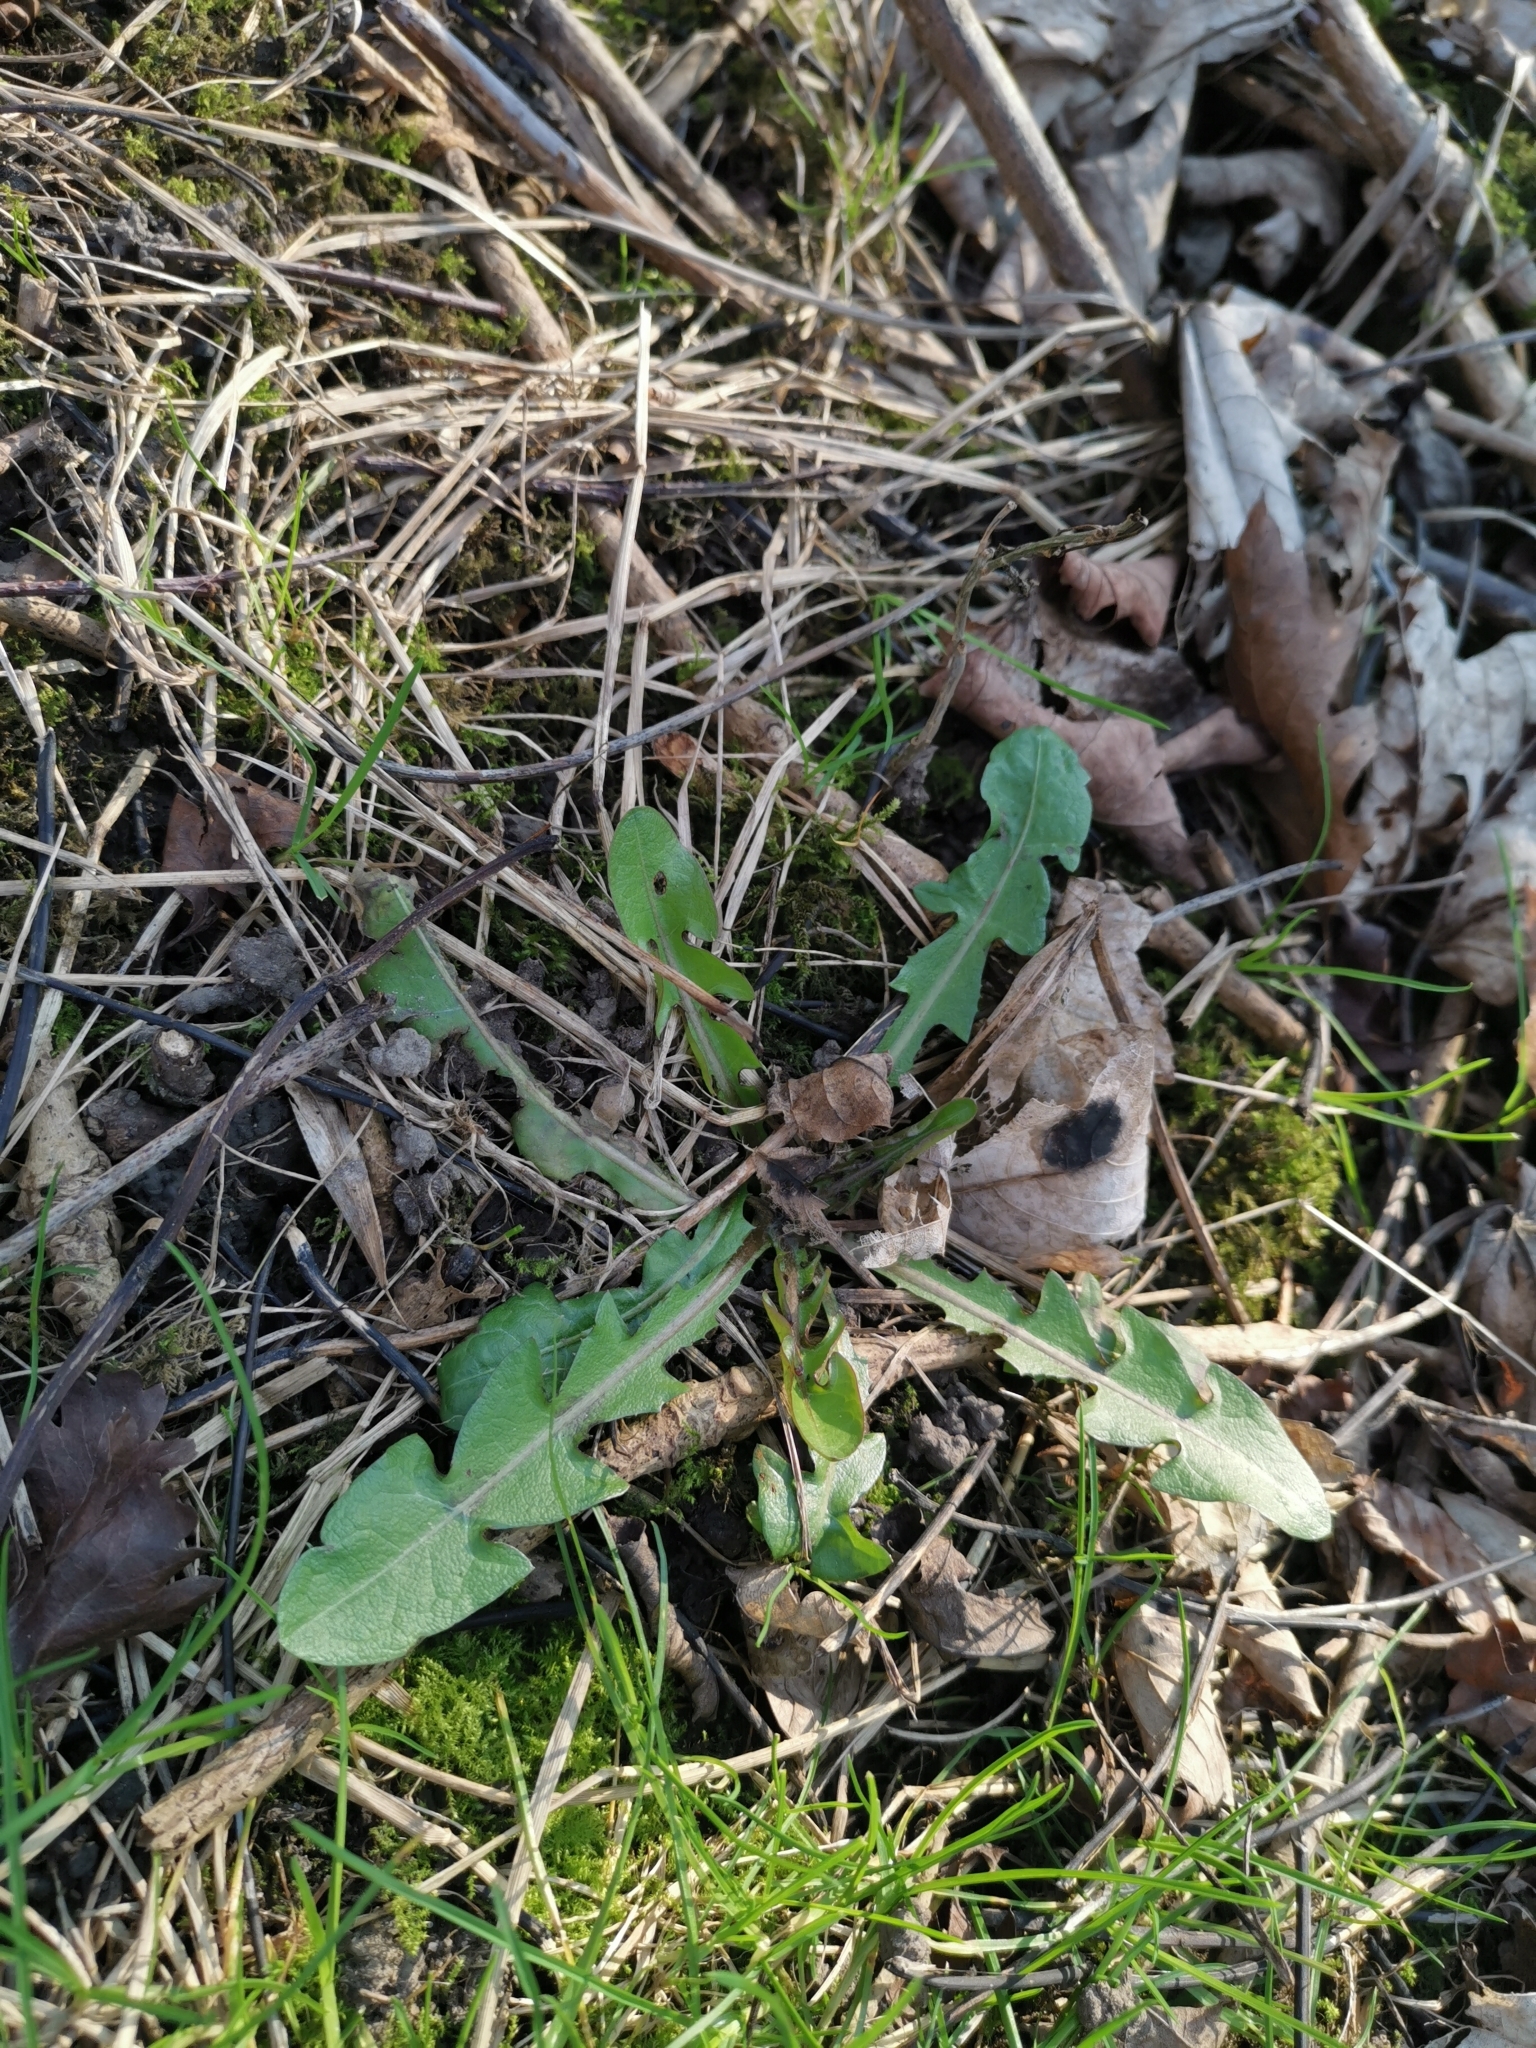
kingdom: Plantae
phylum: Tracheophyta
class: Magnoliopsida
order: Asterales
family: Asteraceae
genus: Taraxacum
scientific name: Taraxacum officinale
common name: Common dandelion
